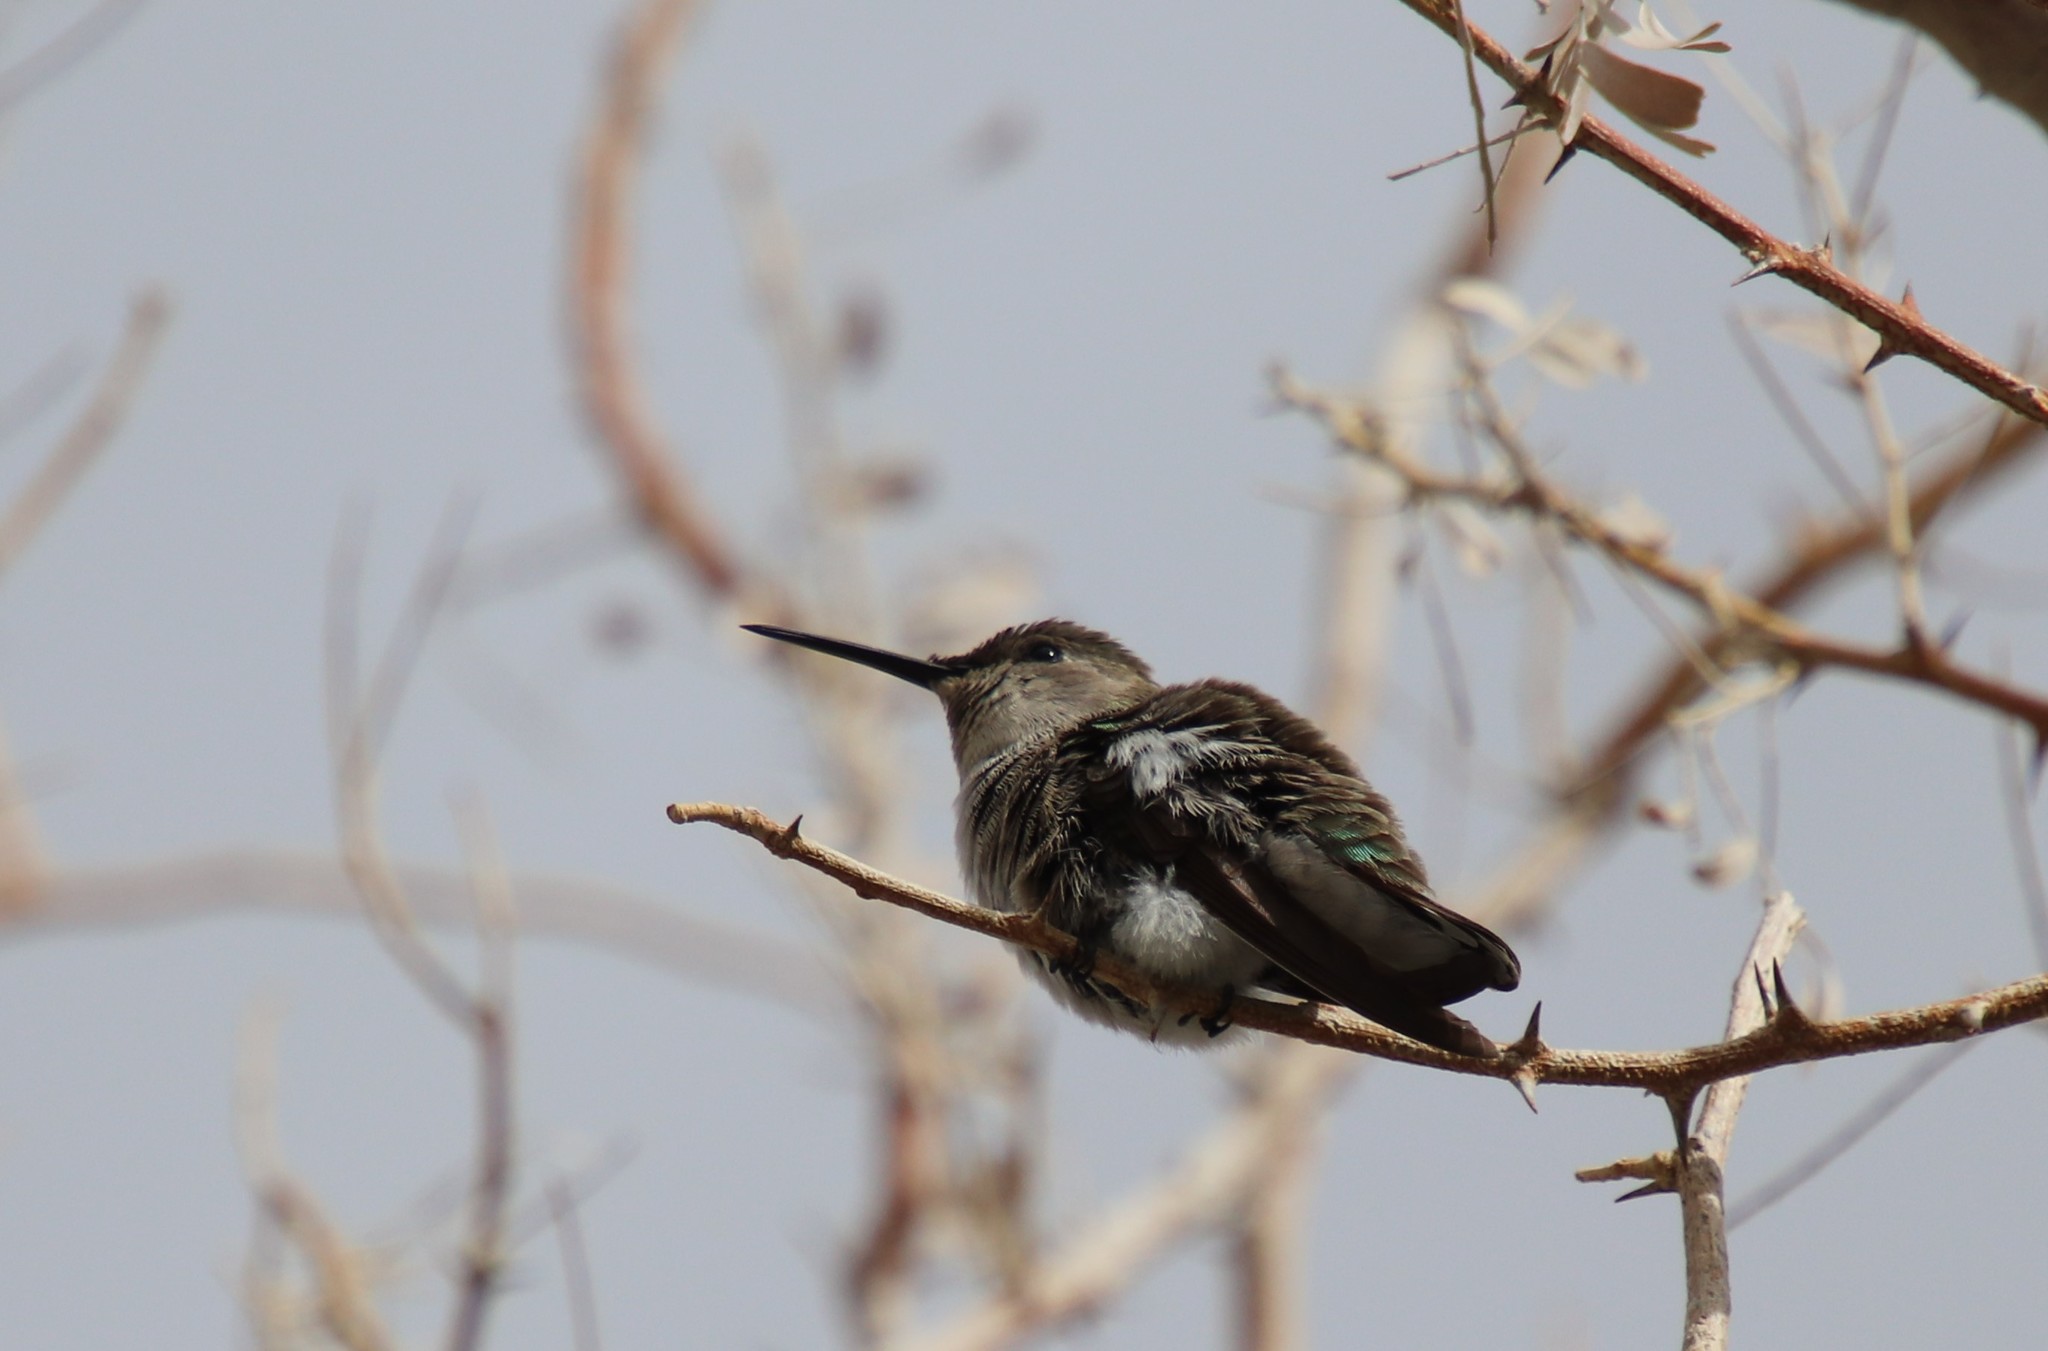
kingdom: Animalia
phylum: Chordata
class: Aves
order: Apodiformes
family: Trochilidae
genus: Calypte
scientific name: Calypte costae
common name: Costa's hummingbird
